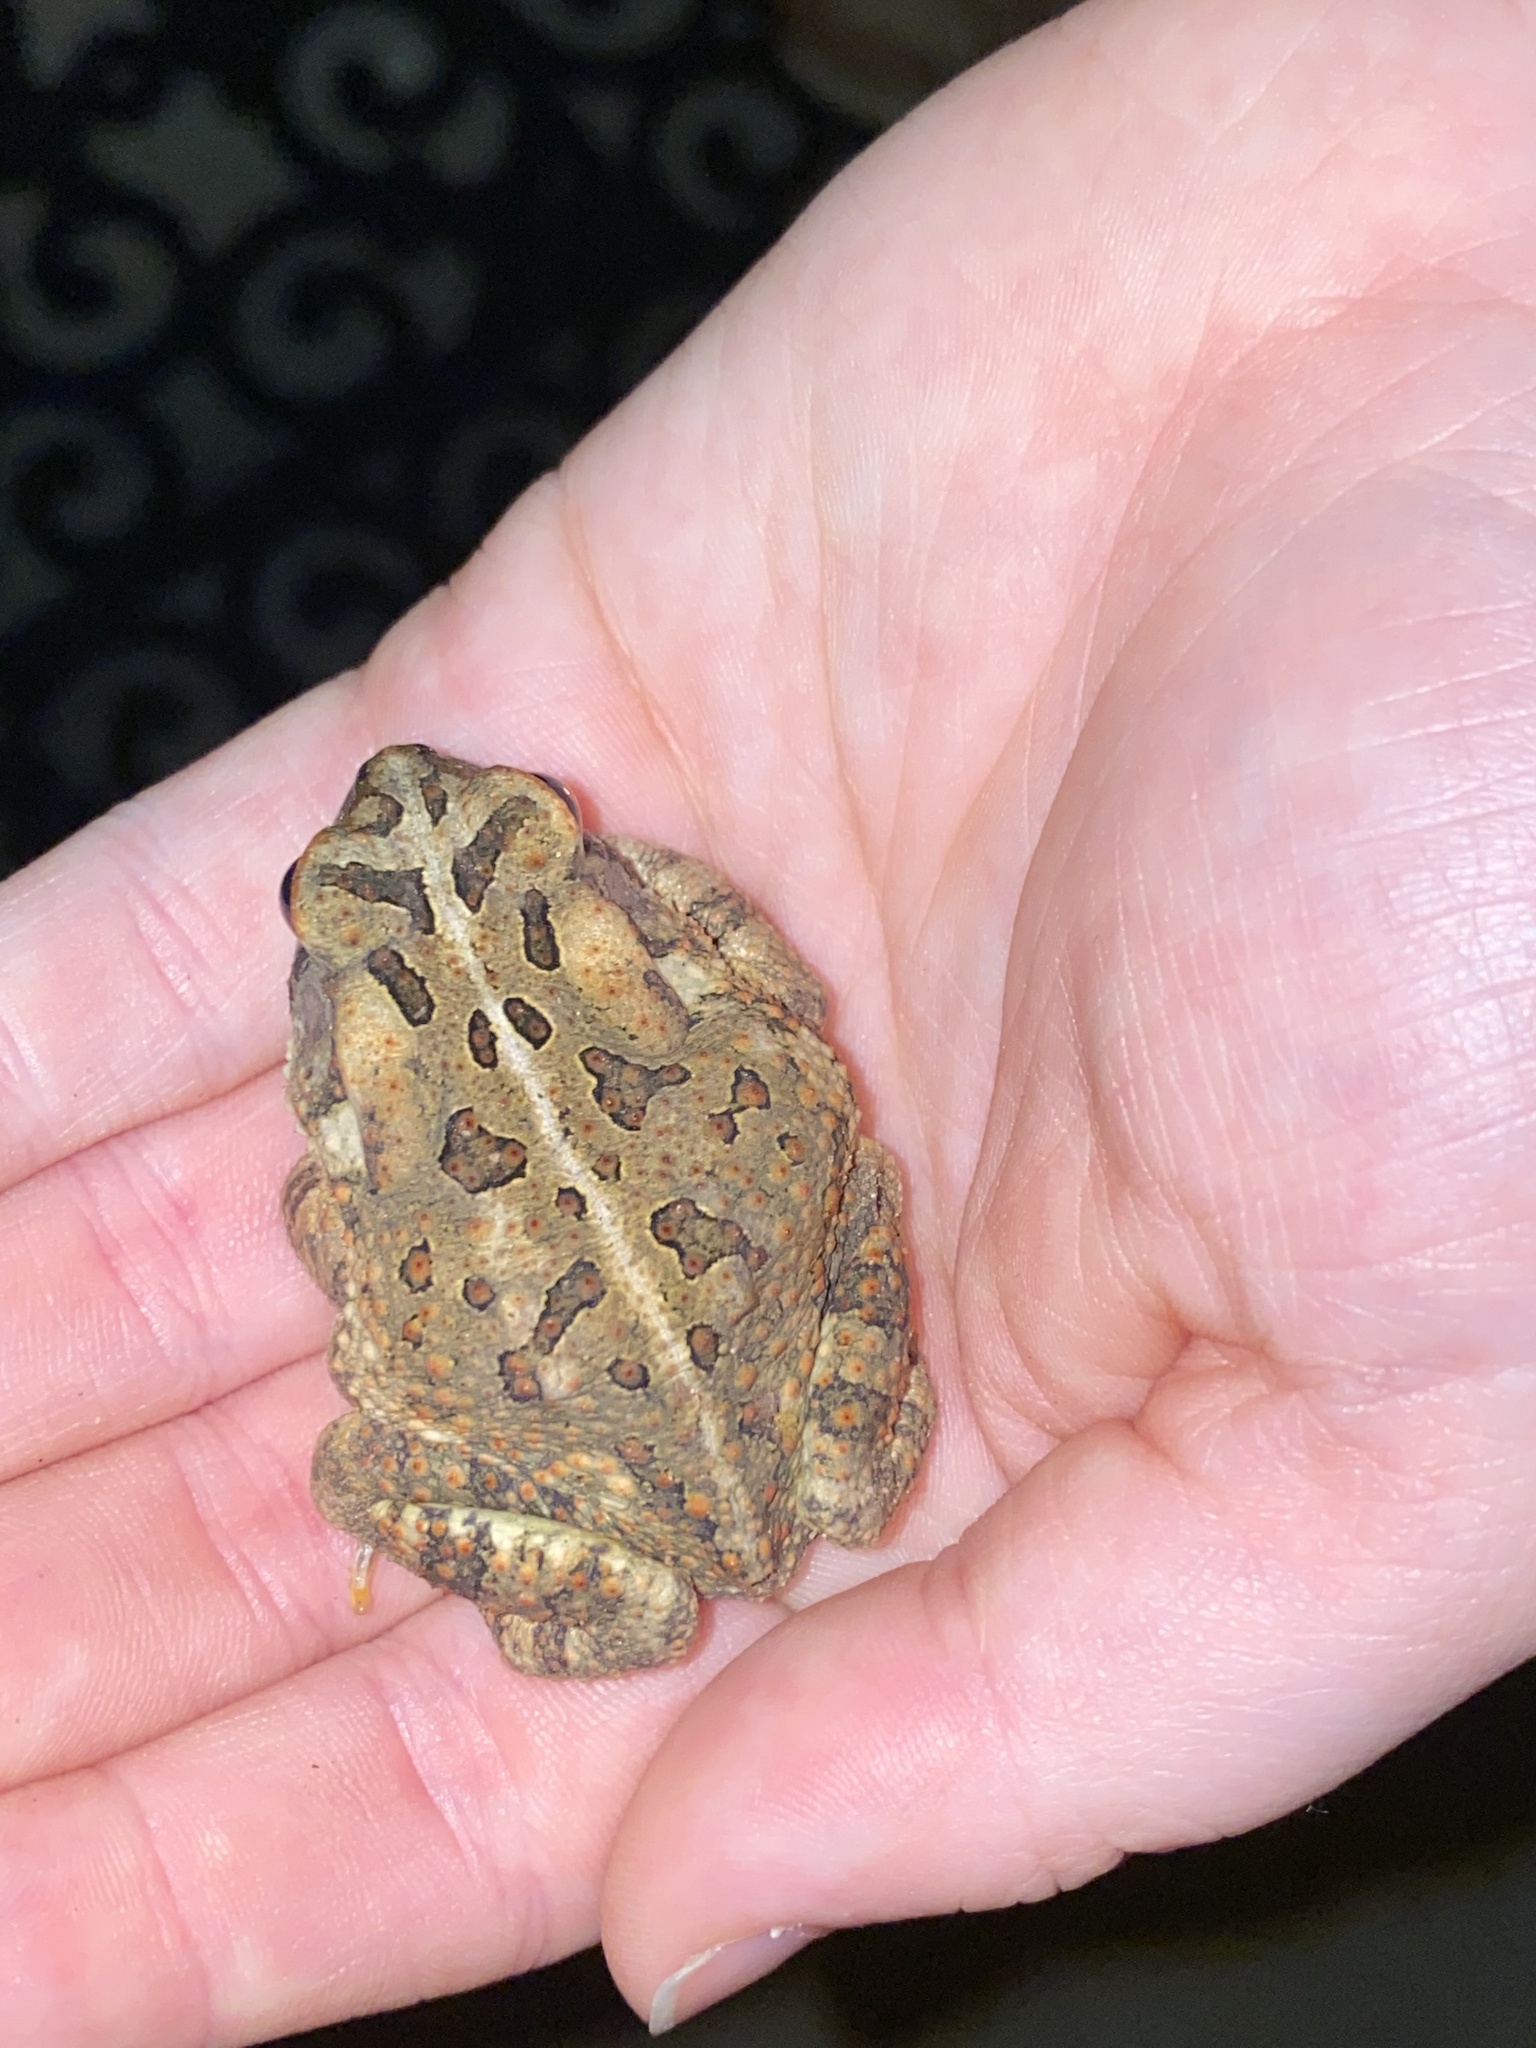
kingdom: Animalia
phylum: Chordata
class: Amphibia
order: Anura
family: Bufonidae
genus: Anaxyrus
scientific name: Anaxyrus fowleri
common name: Fowler's toad
